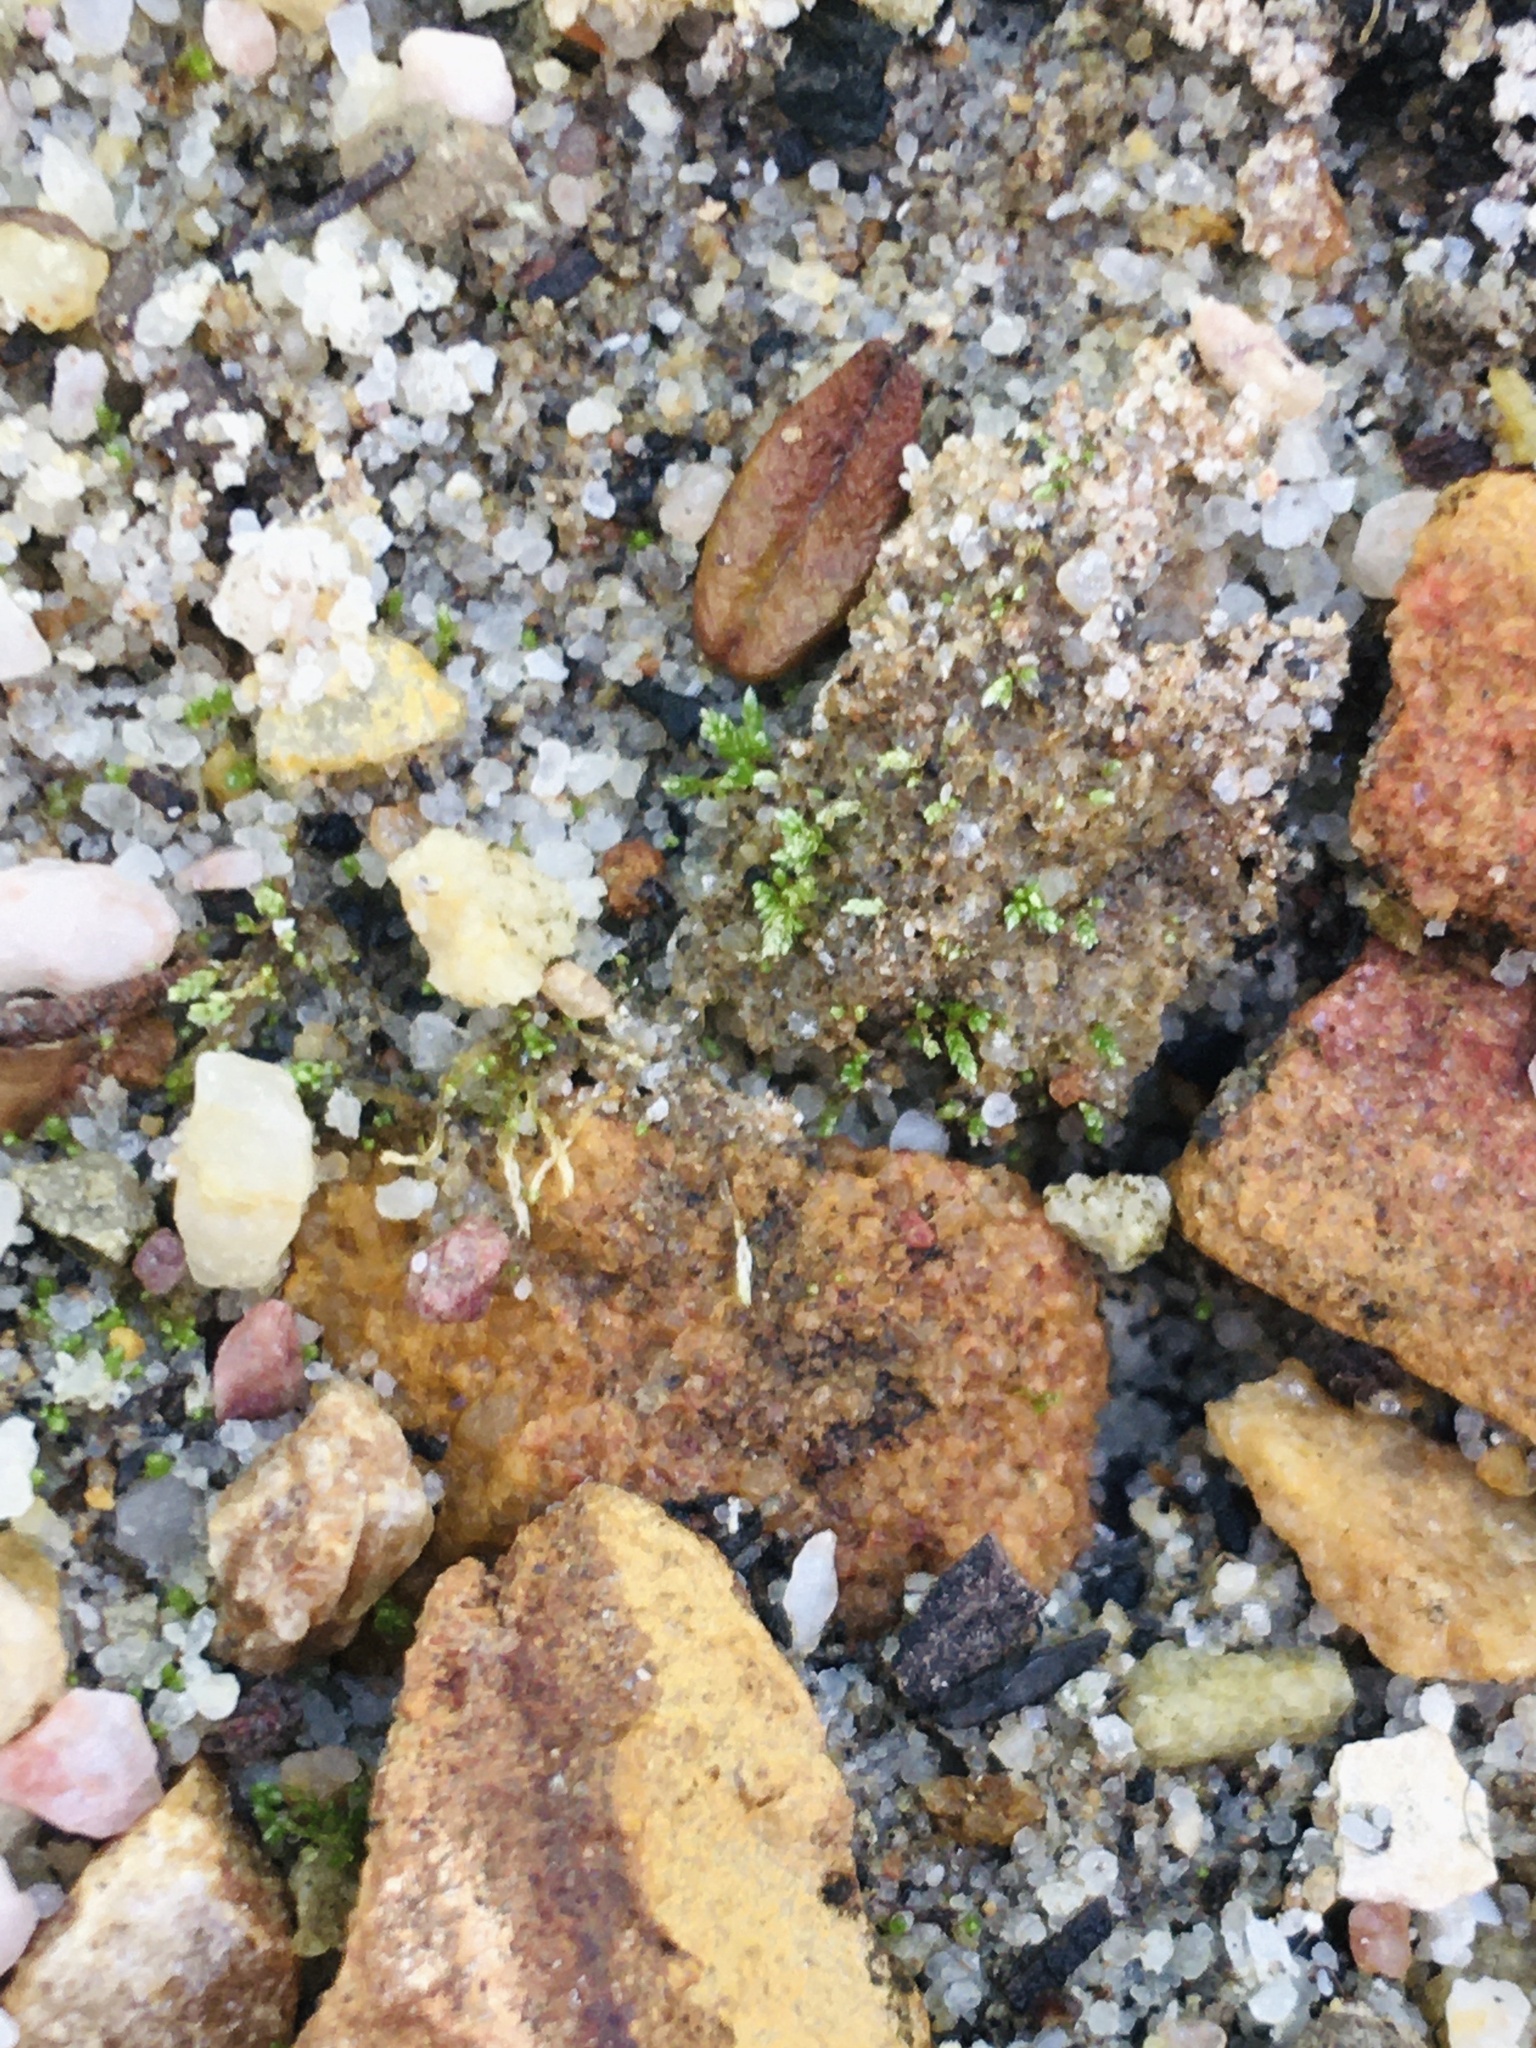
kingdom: Plantae
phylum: Bryophyta
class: Bryopsida
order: Bryales
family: Bryaceae
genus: Bryum
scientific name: Bryum argenteum
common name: Silver-moss
